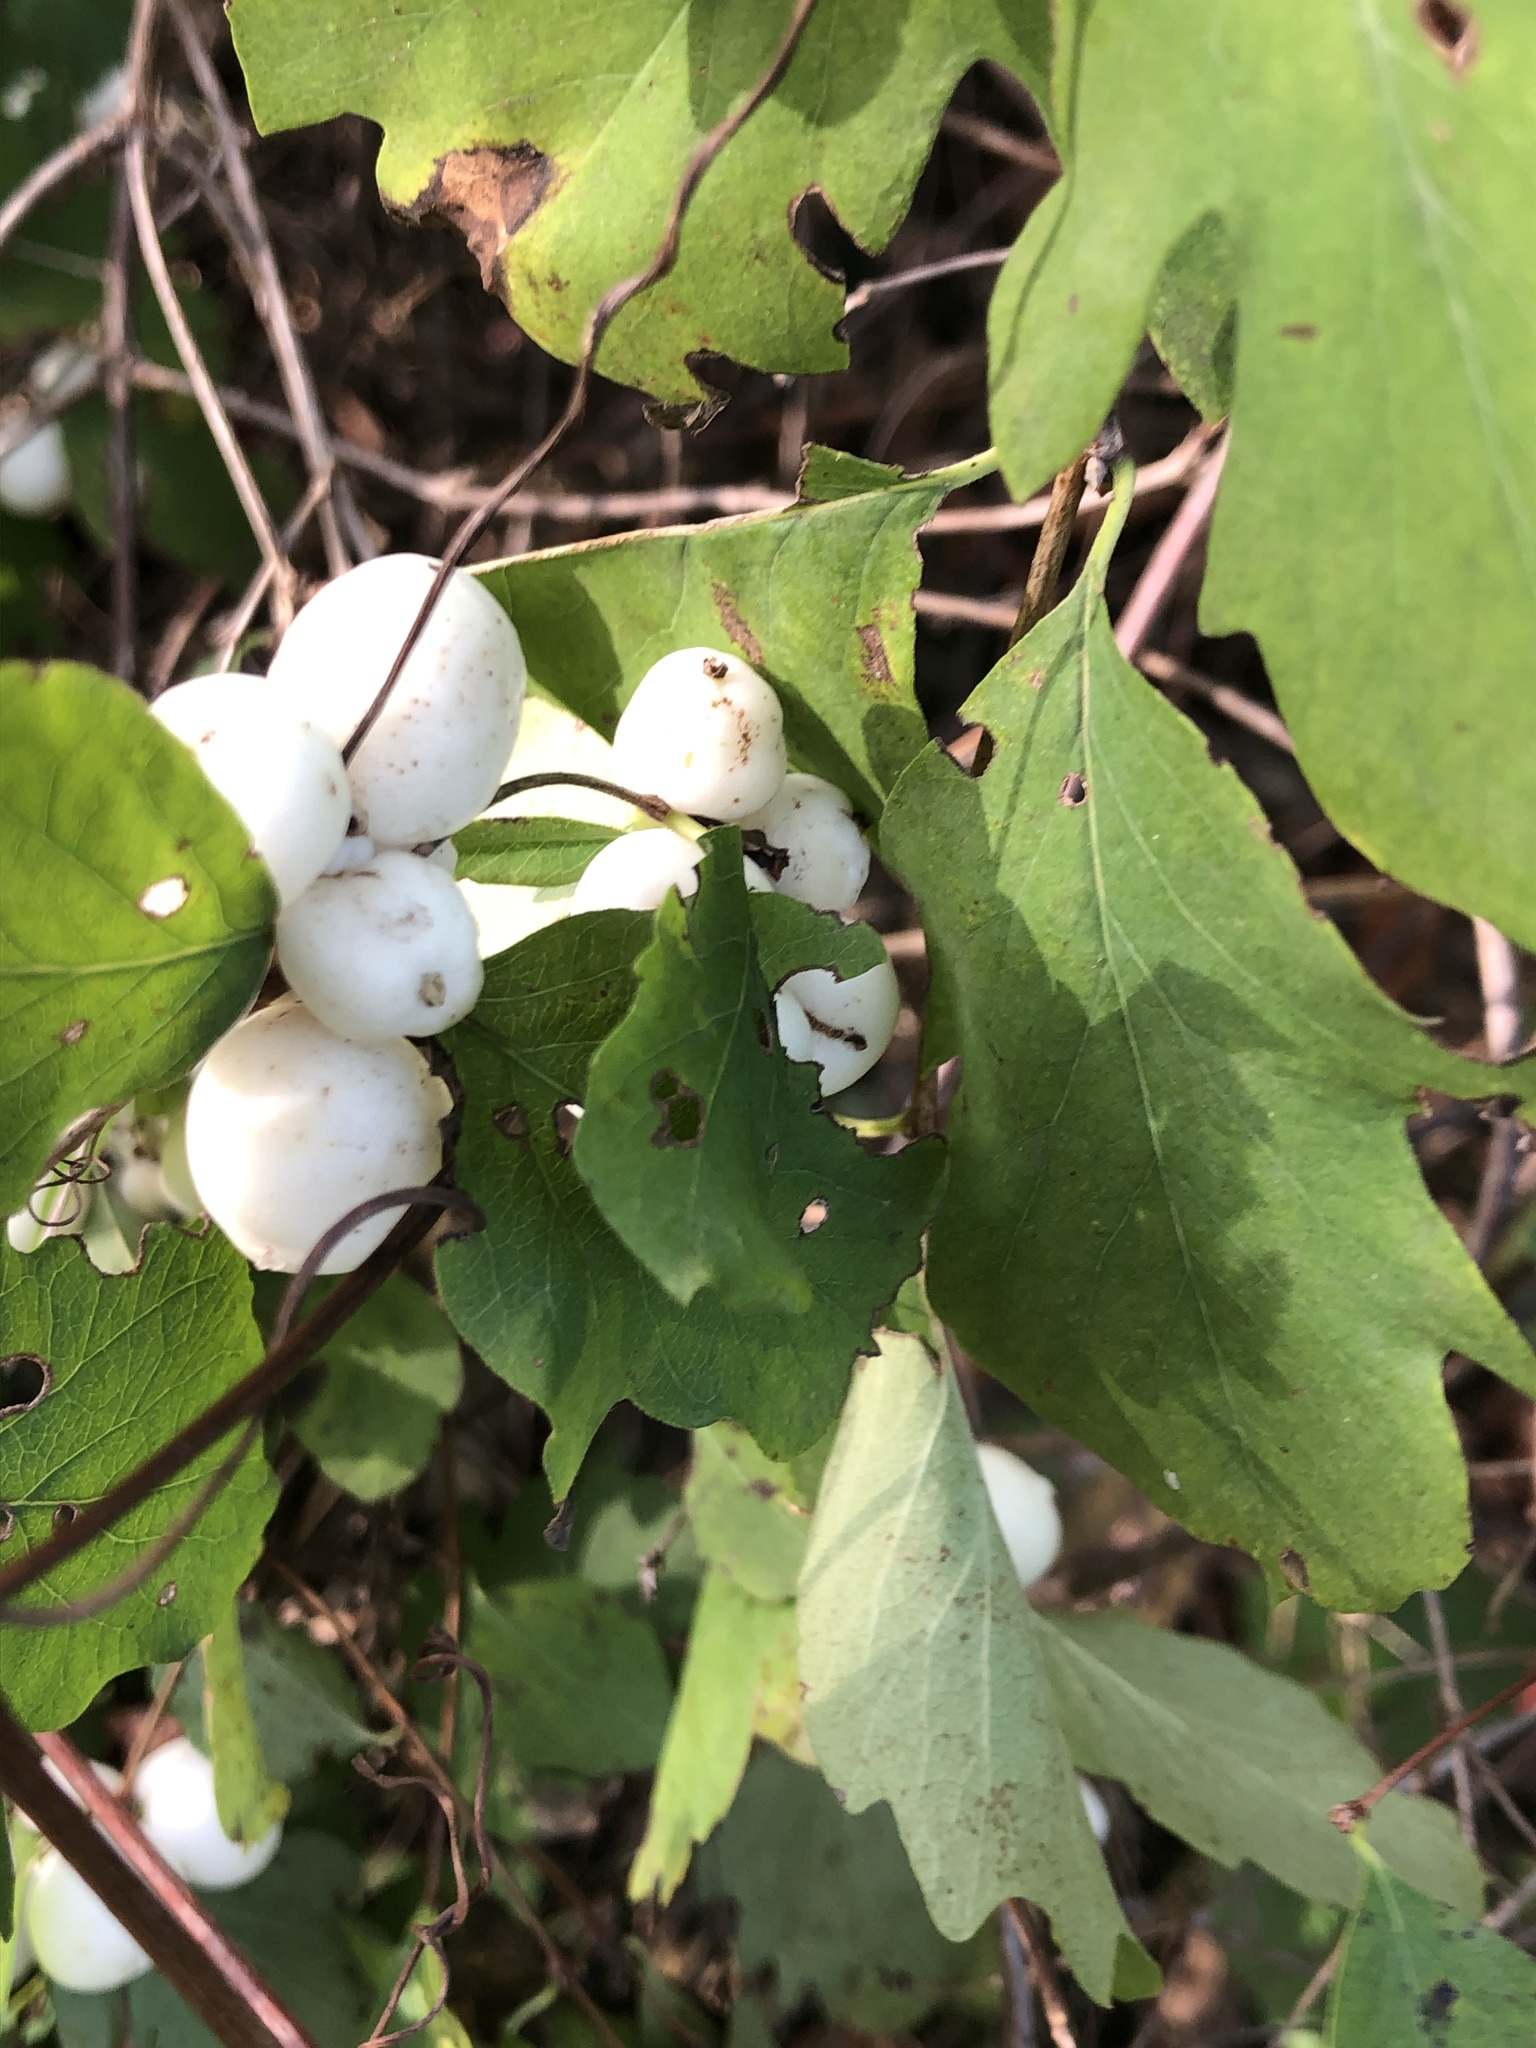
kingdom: Plantae
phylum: Tracheophyta
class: Magnoliopsida
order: Dipsacales
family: Caprifoliaceae
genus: Symphoricarpos
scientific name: Symphoricarpos albus
